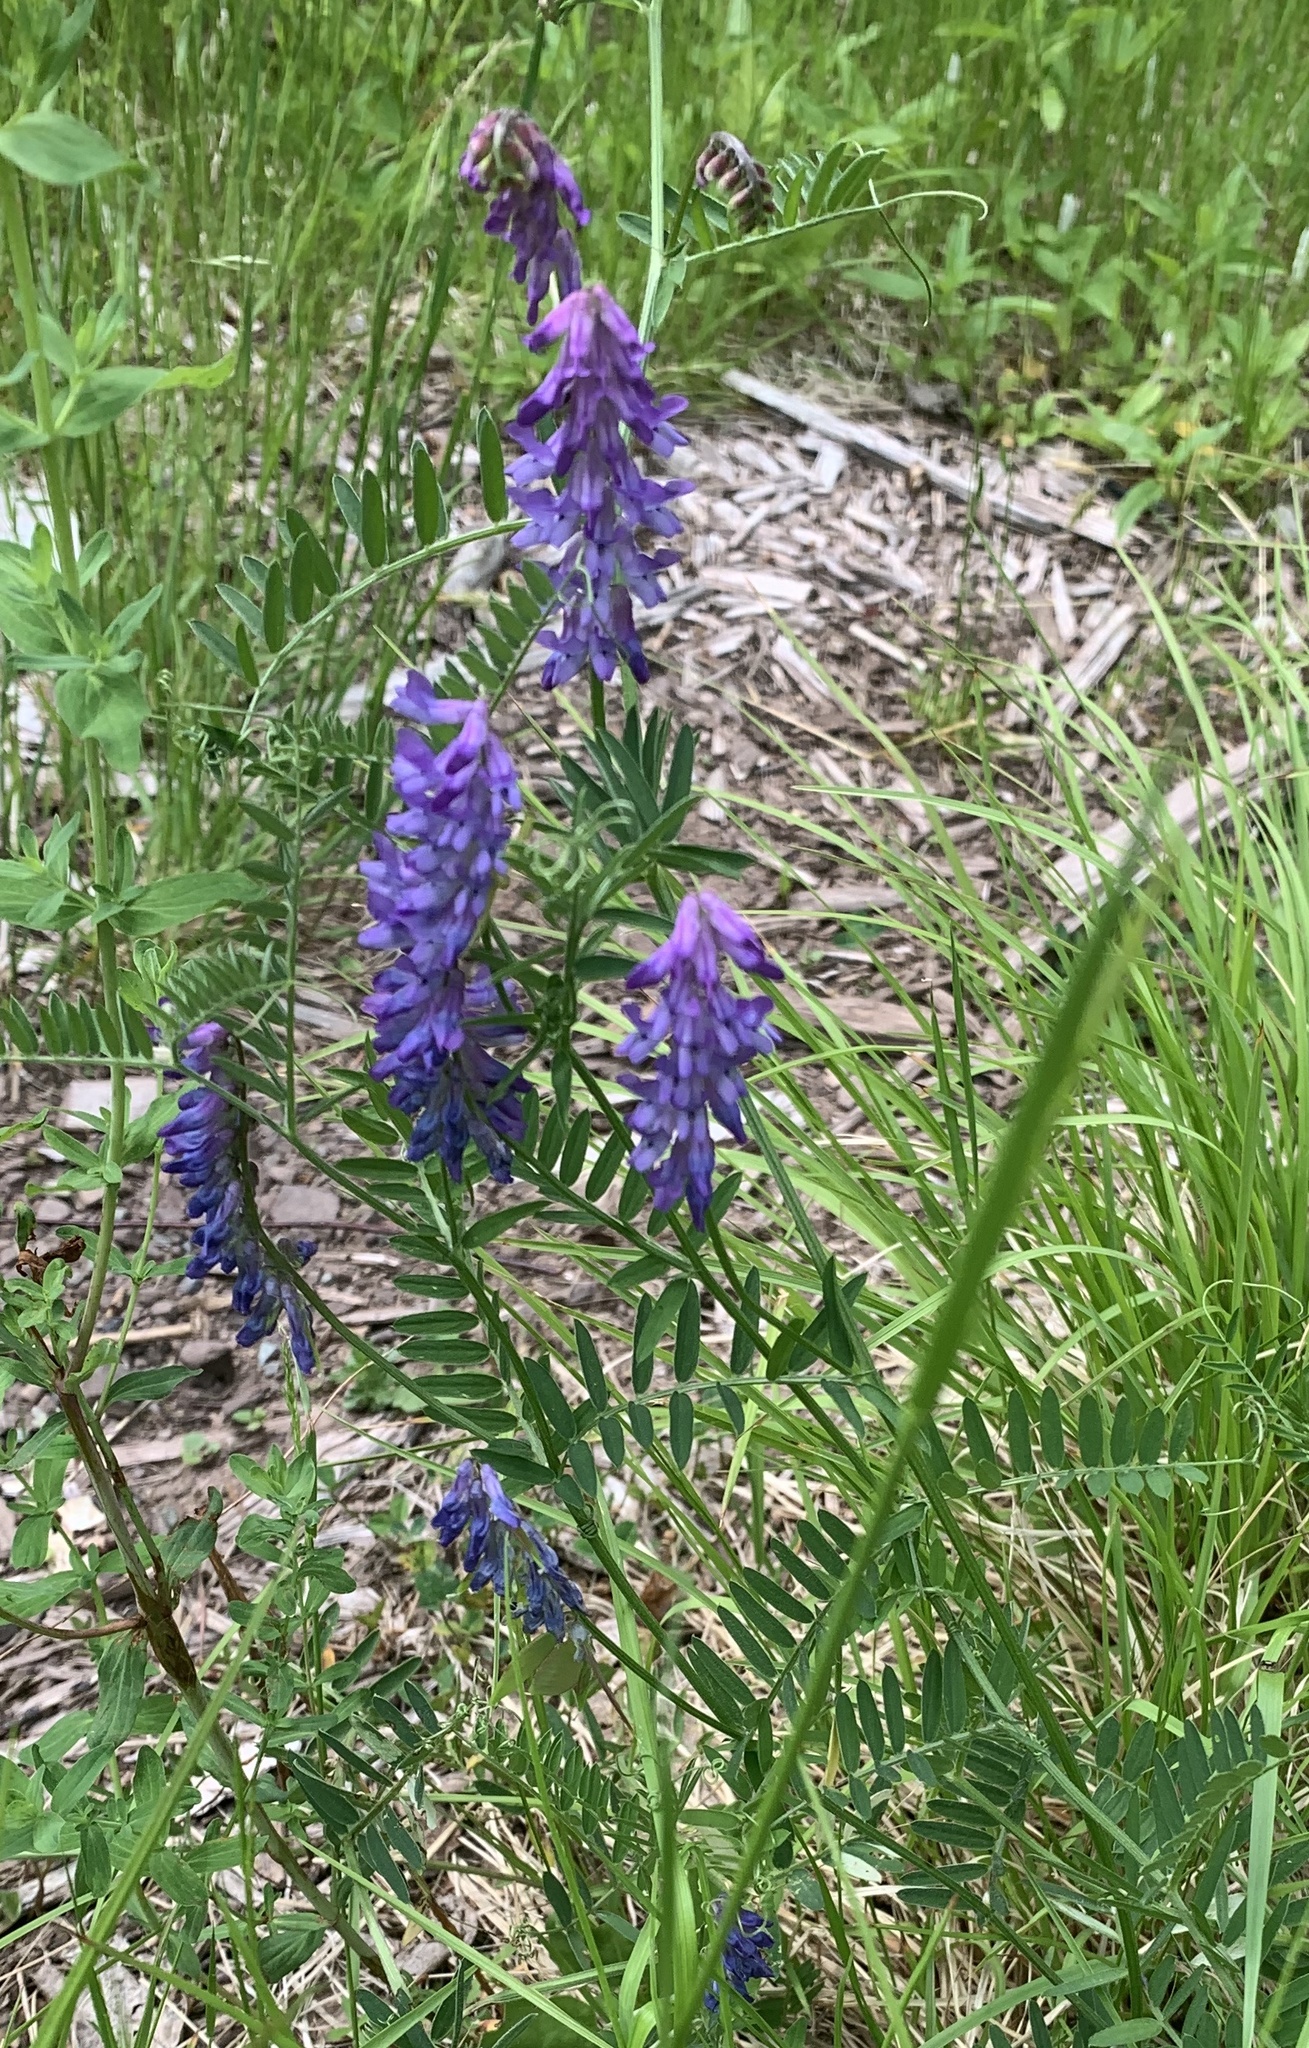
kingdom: Plantae
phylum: Tracheophyta
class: Magnoliopsida
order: Fabales
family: Fabaceae
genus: Vicia
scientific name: Vicia cracca
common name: Bird vetch
